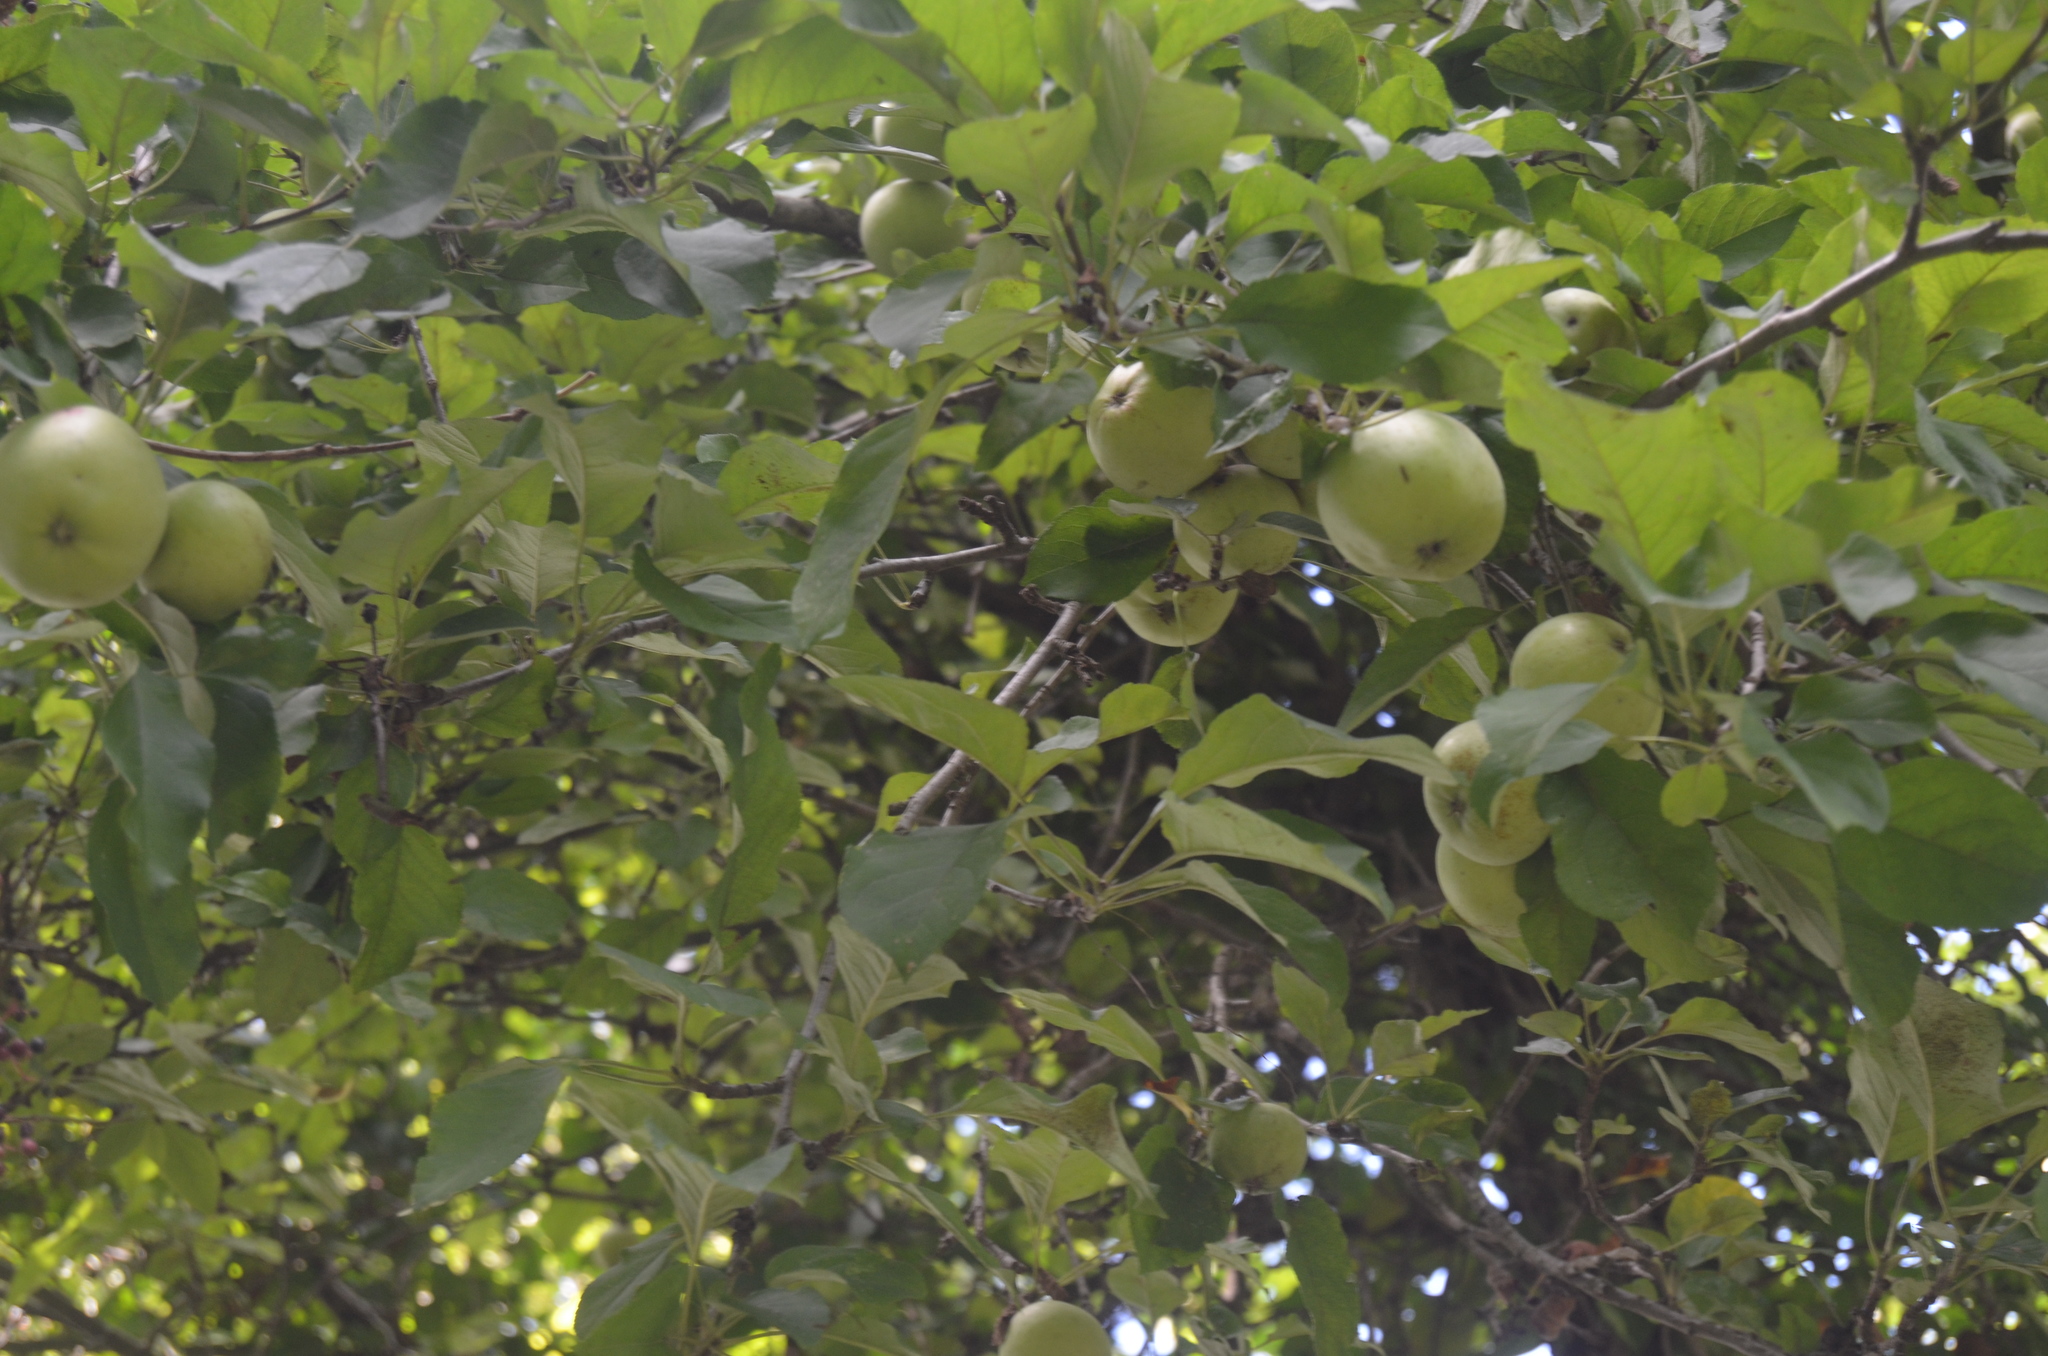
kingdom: Plantae
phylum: Tracheophyta
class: Magnoliopsida
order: Rosales
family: Rosaceae
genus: Malus
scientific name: Malus domestica
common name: Apple
